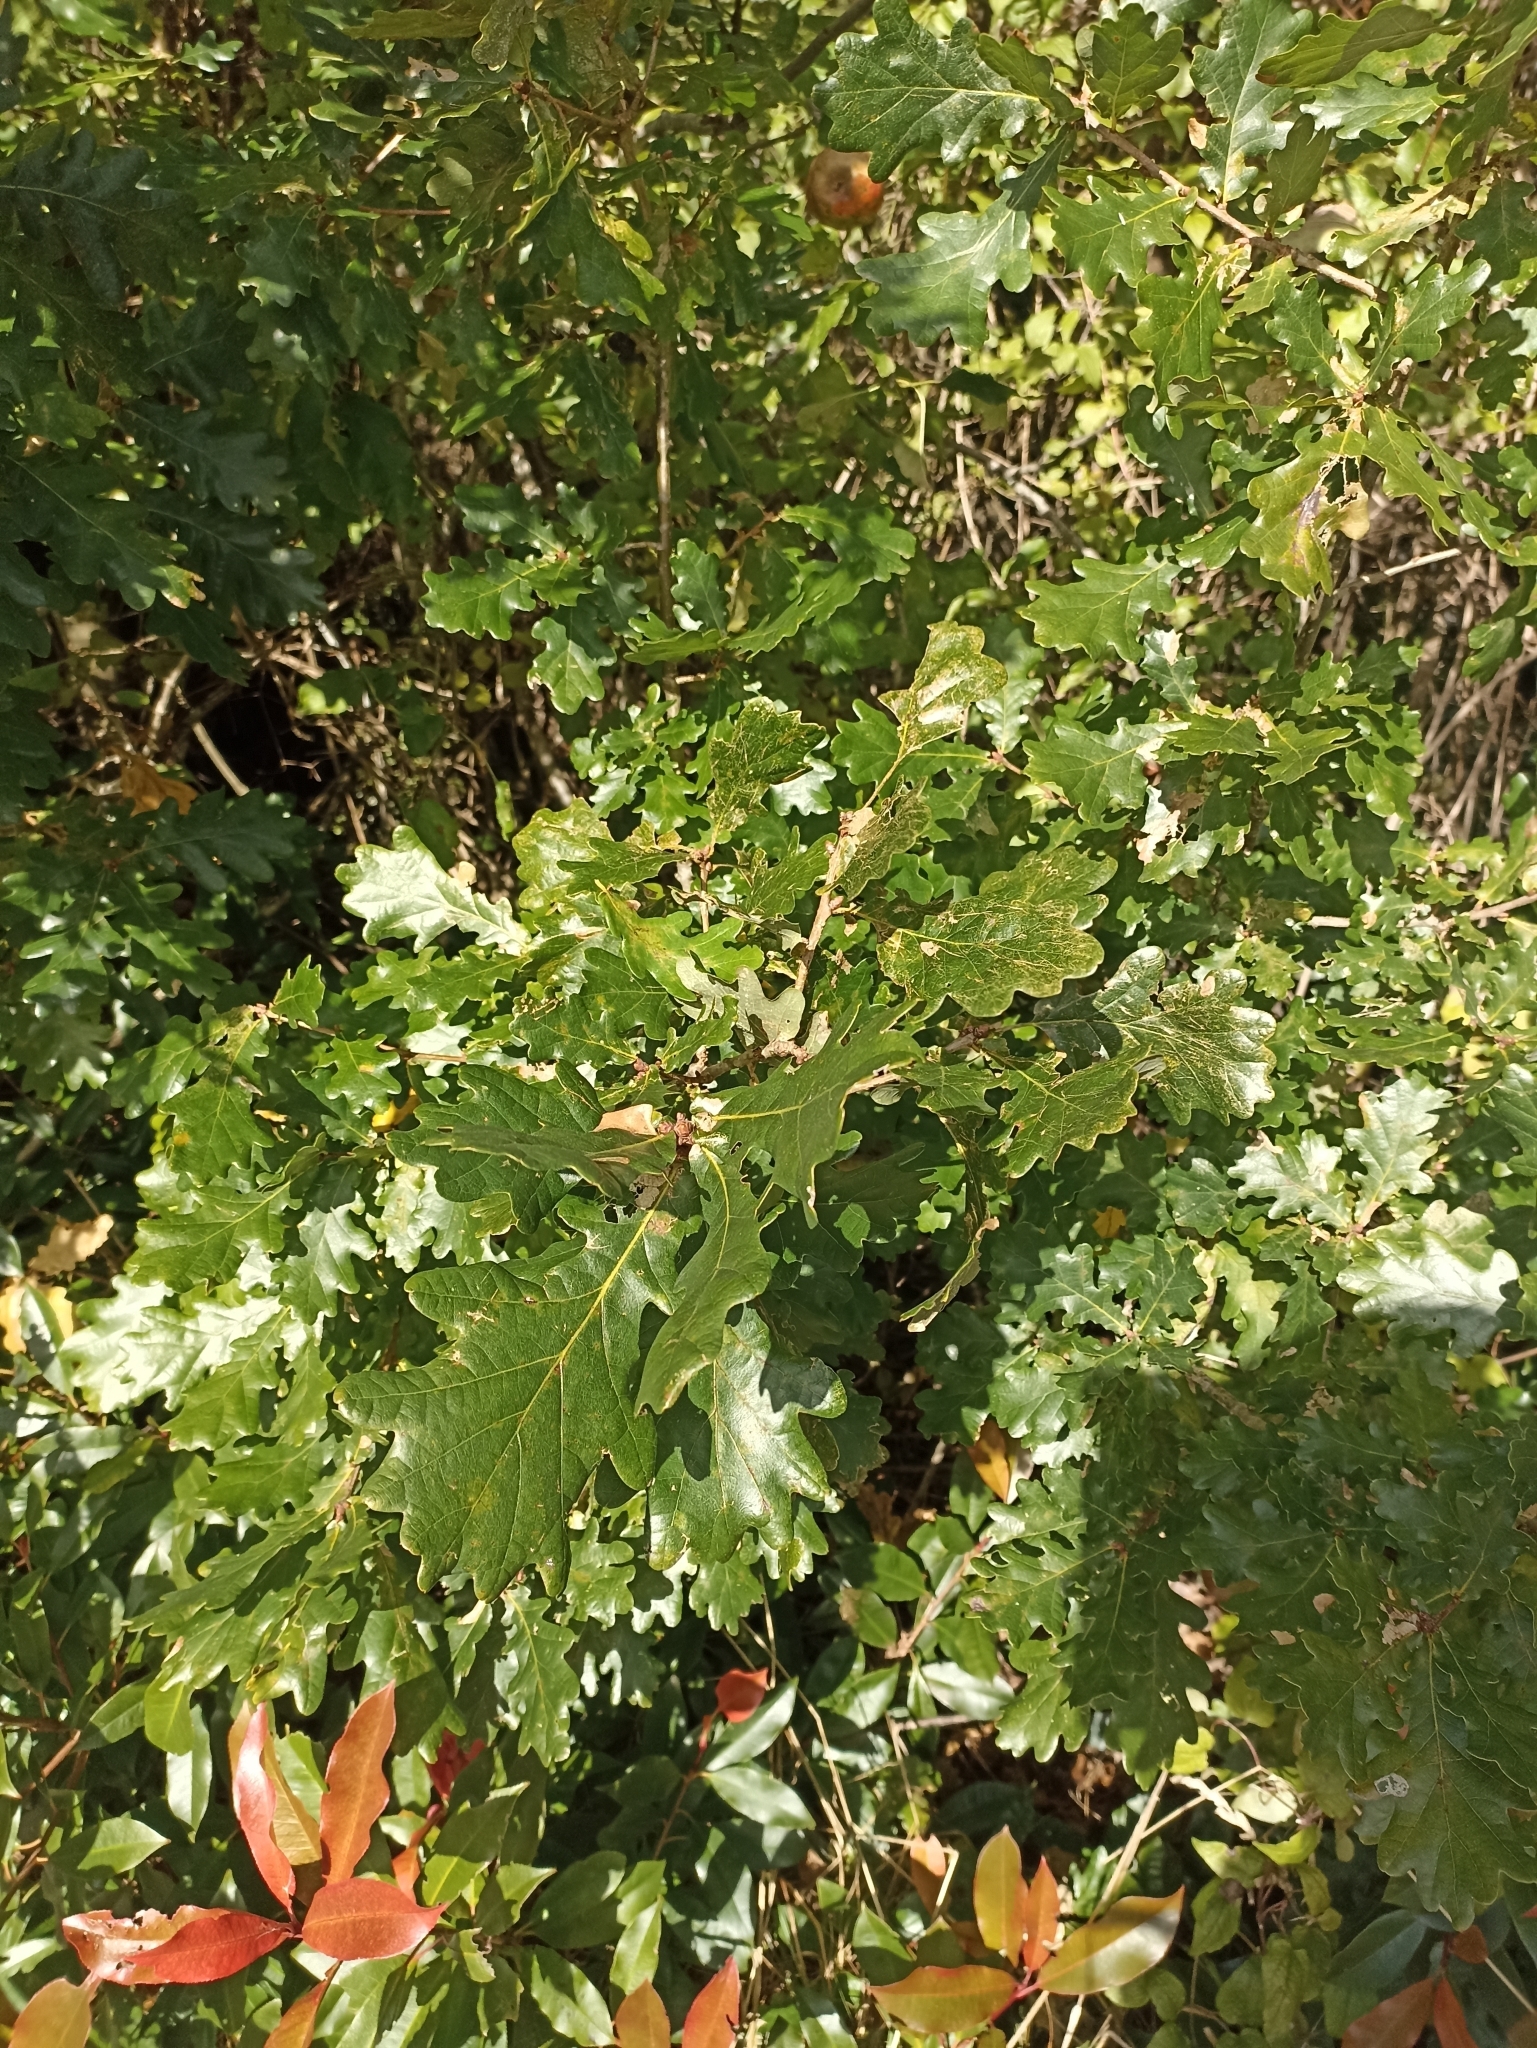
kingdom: Plantae
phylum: Tracheophyta
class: Magnoliopsida
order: Fagales
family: Fagaceae
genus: Quercus
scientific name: Quercus robur
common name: Pedunculate oak
